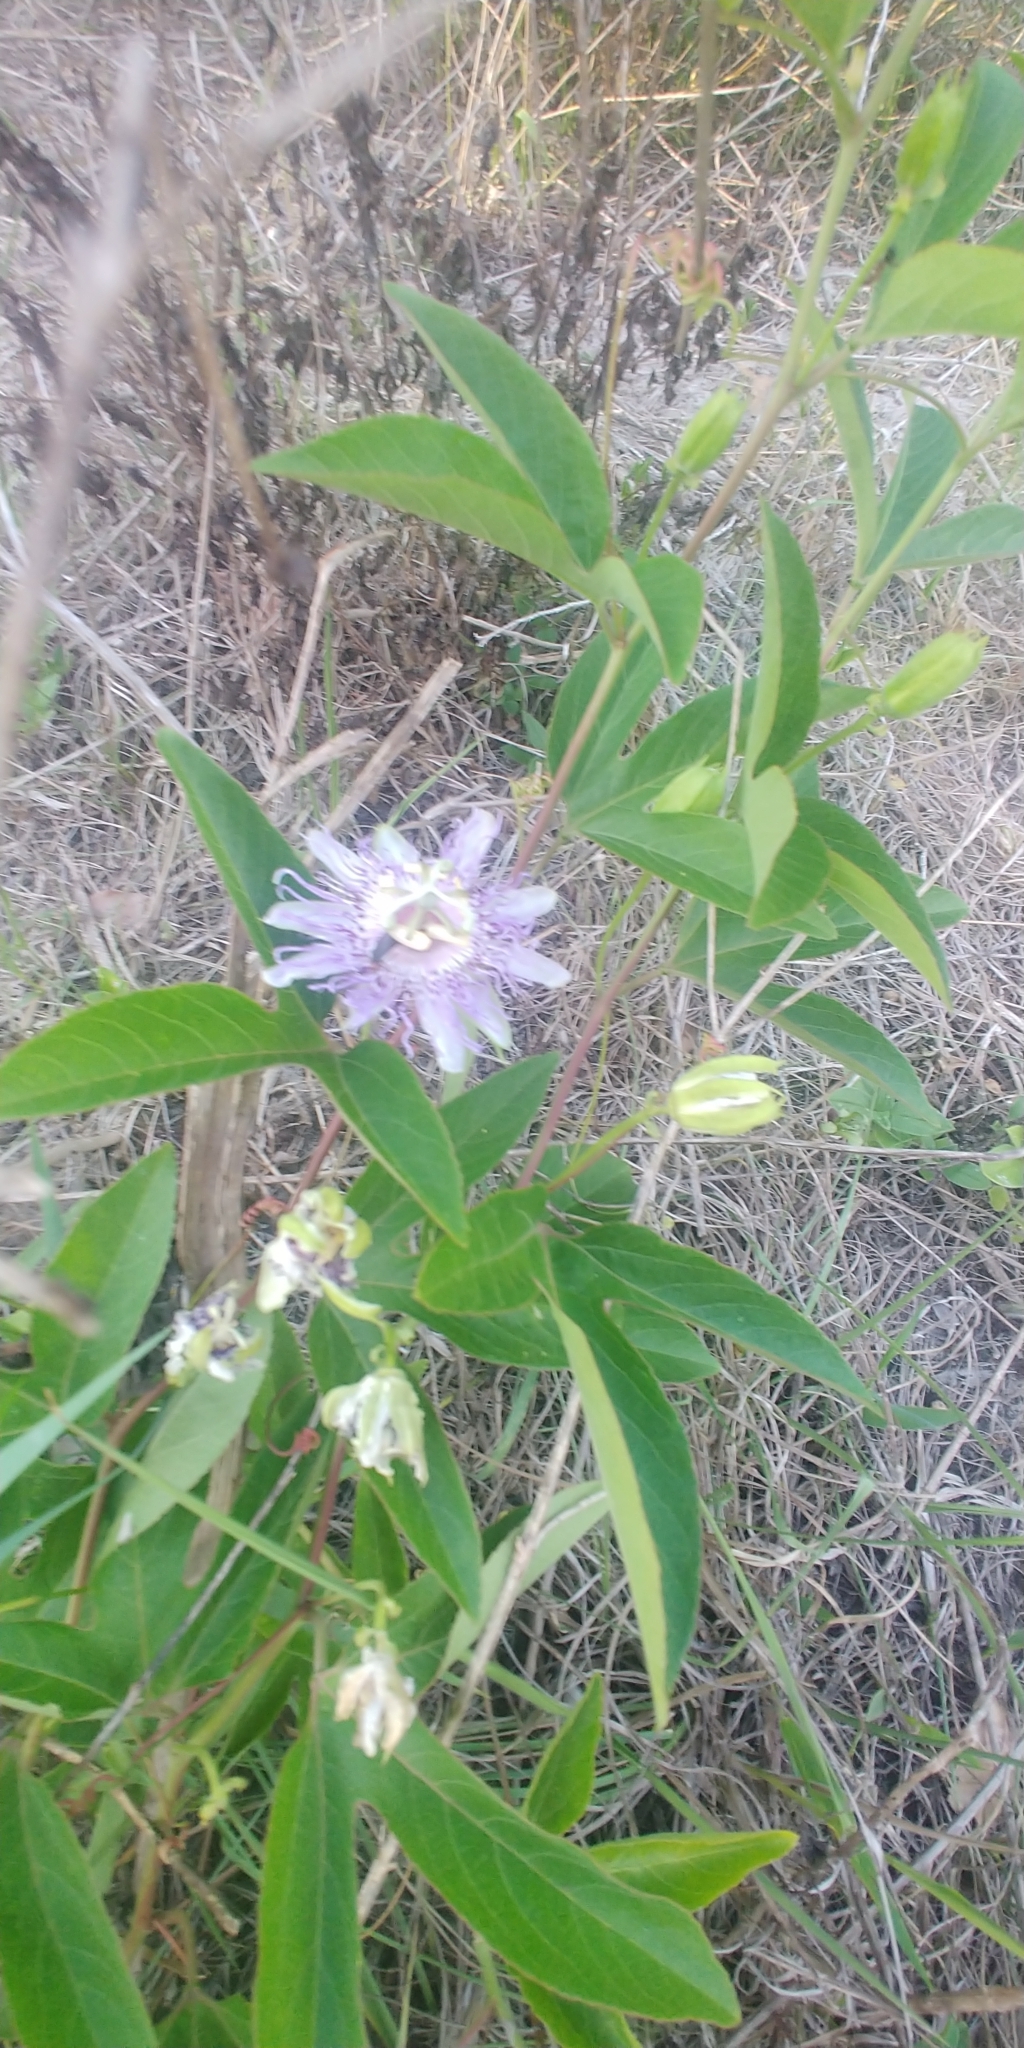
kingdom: Plantae
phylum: Tracheophyta
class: Magnoliopsida
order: Malpighiales
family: Passifloraceae
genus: Passiflora
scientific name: Passiflora incarnata
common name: Apricot-vine
